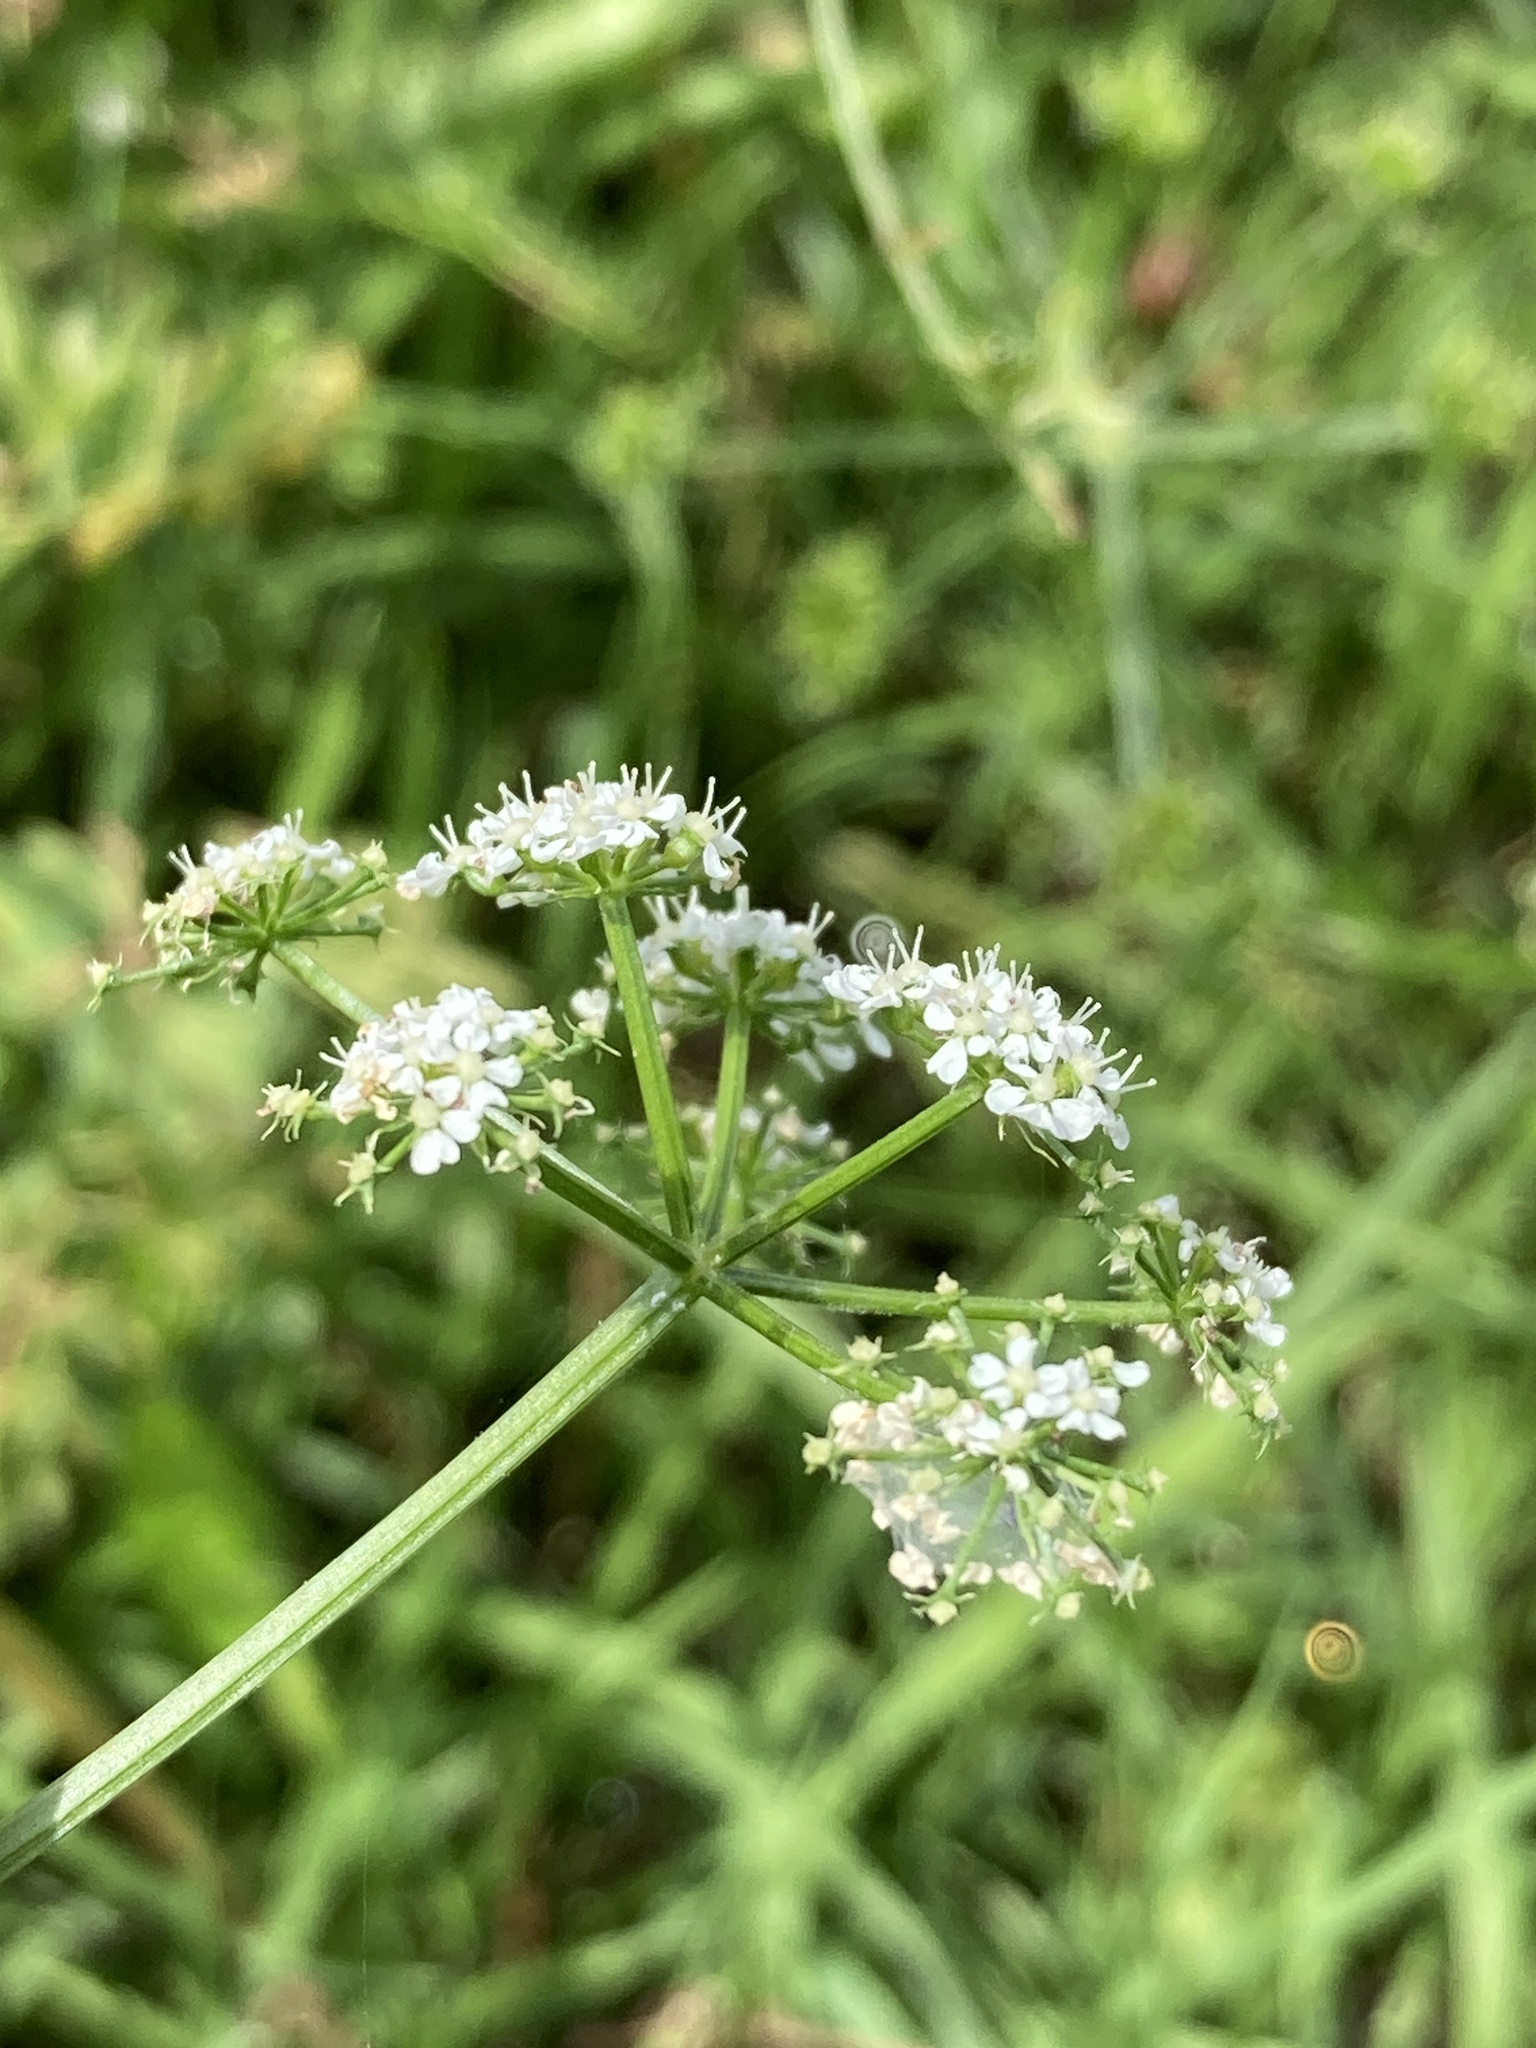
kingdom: Plantae
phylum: Tracheophyta
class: Magnoliopsida
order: Apiales
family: Apiaceae
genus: Oenanthe
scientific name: Oenanthe aquatica
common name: Fine-leaved water-dropwort
